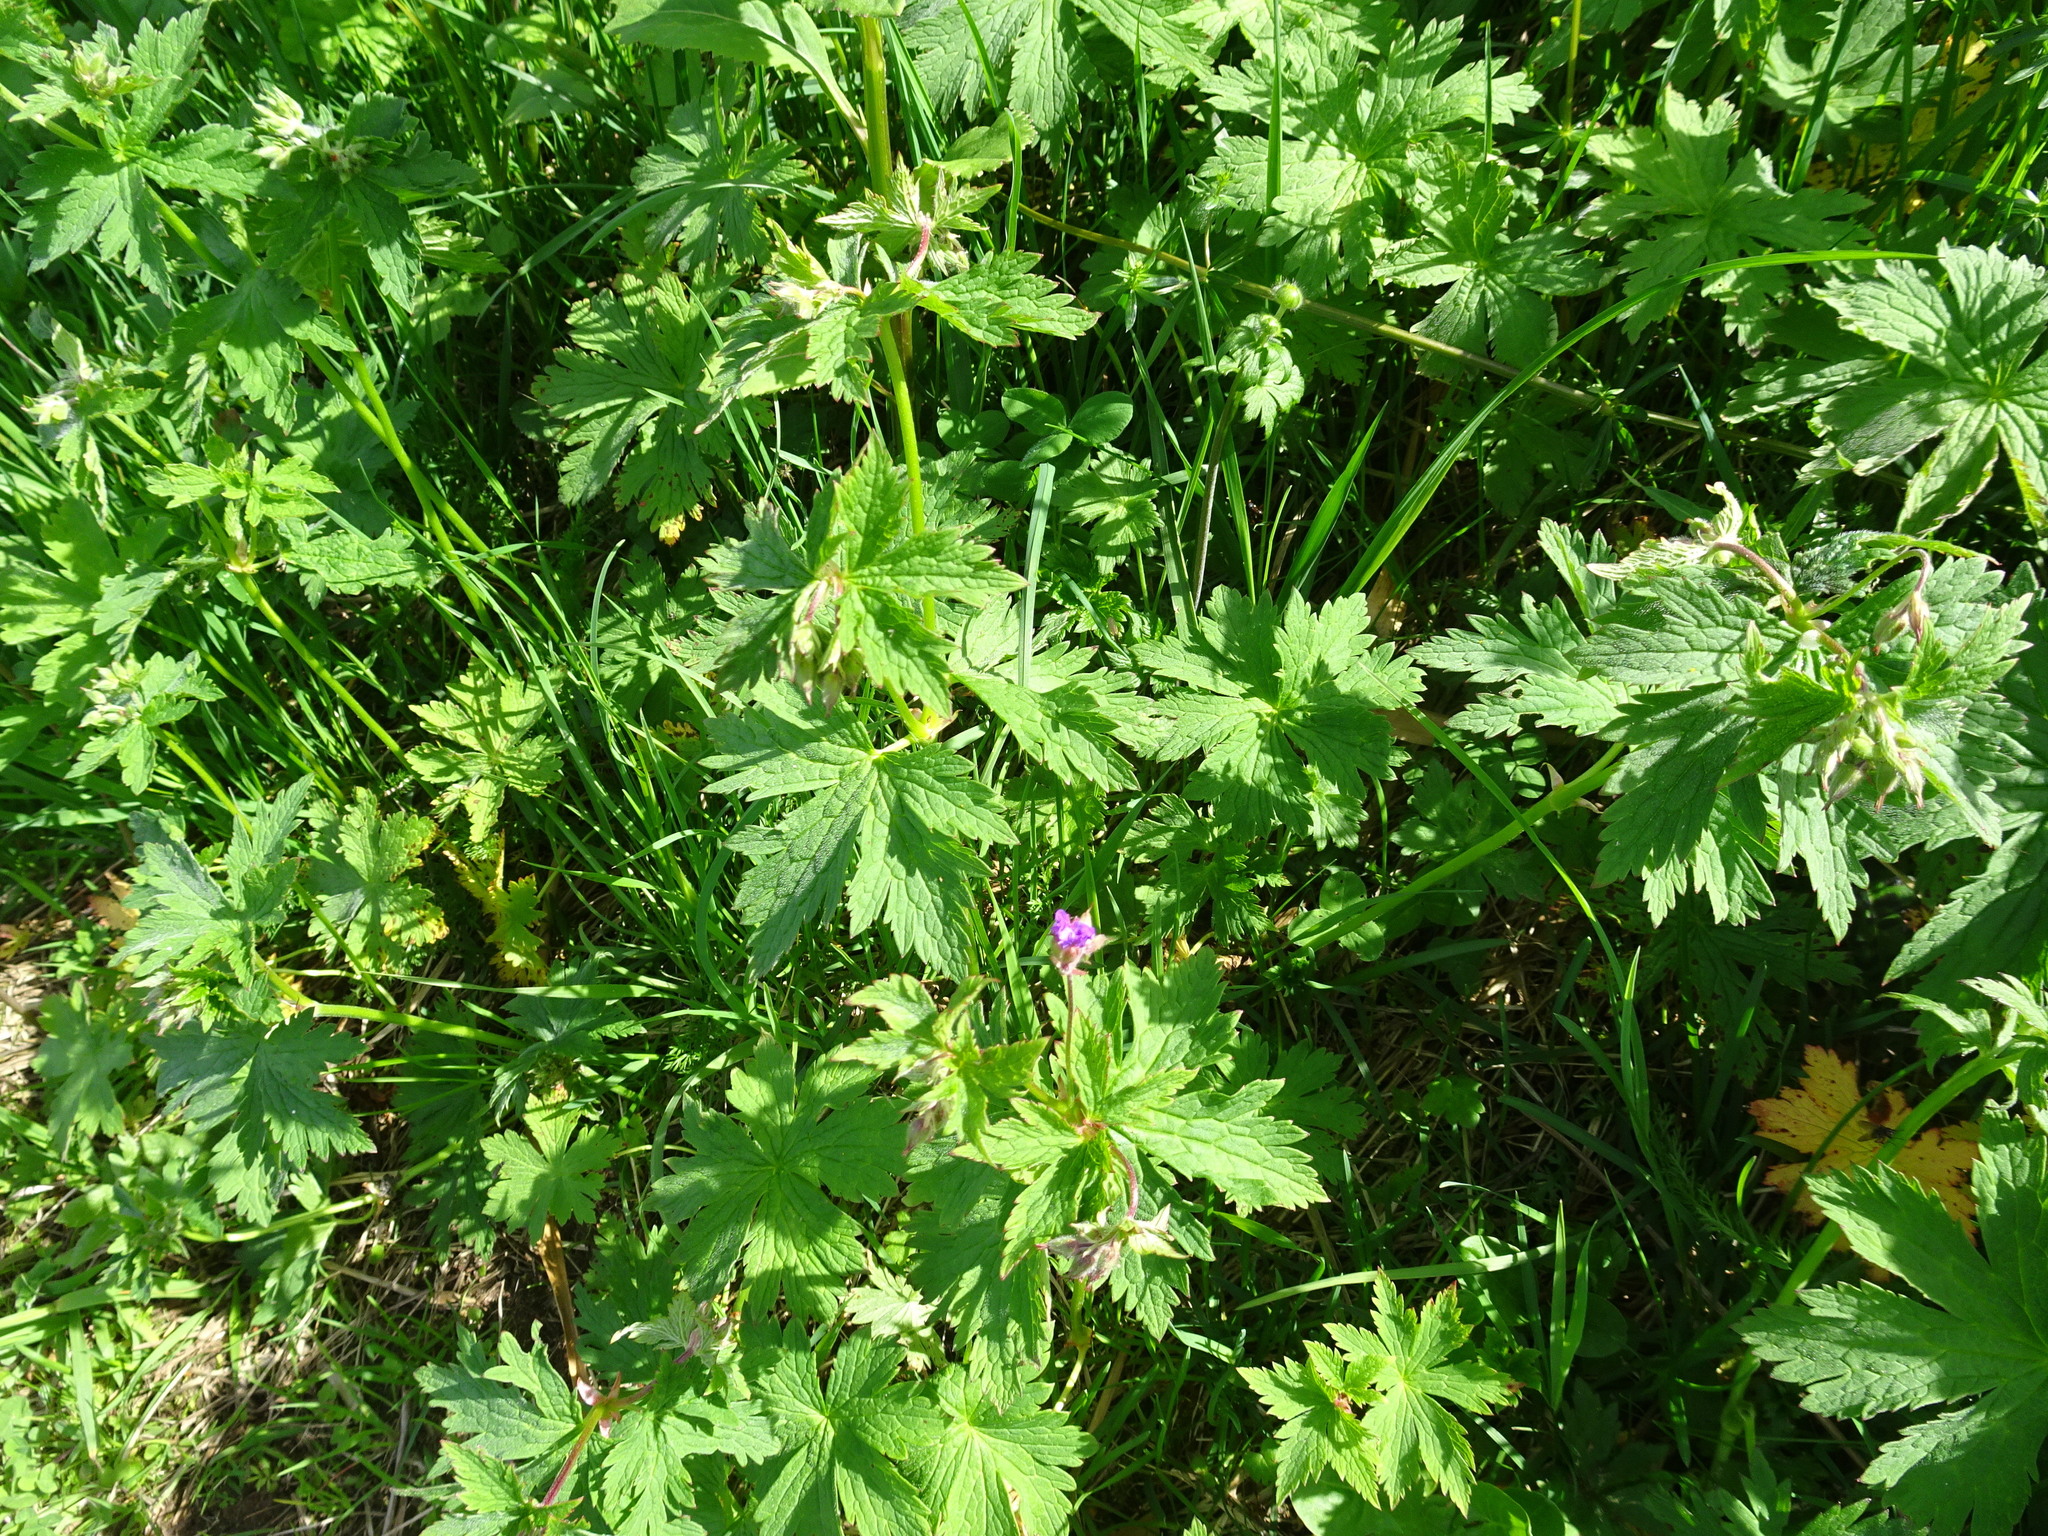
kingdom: Plantae
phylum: Tracheophyta
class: Magnoliopsida
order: Geraniales
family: Geraniaceae
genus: Geranium
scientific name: Geranium sylvaticum
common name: Wood crane's-bill
